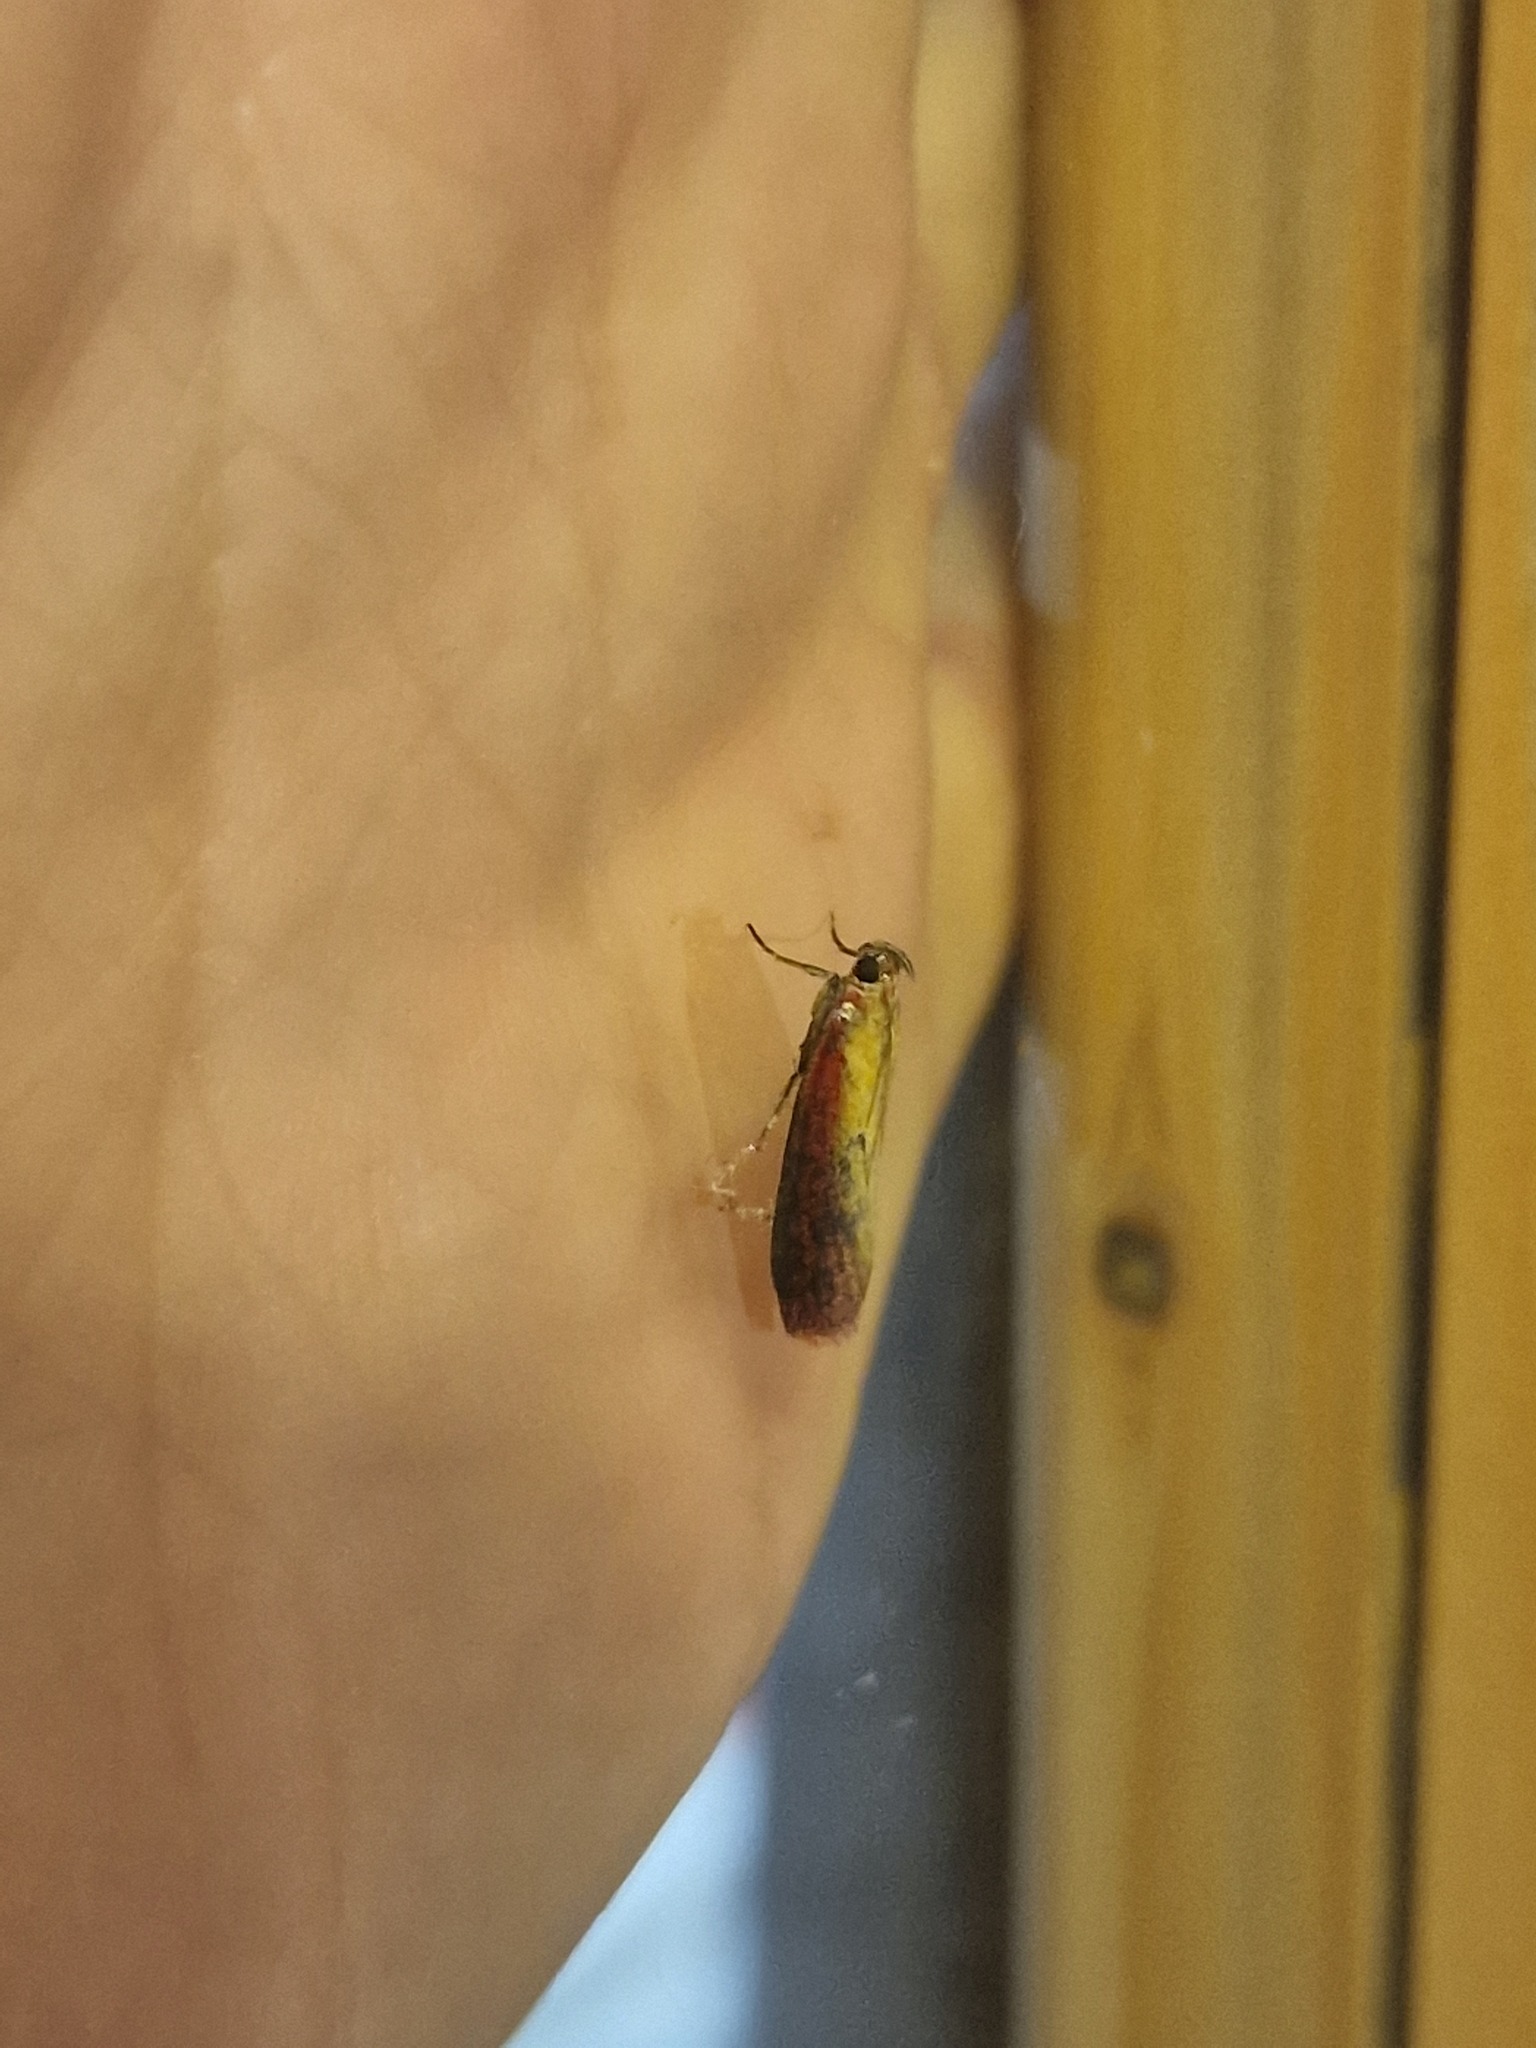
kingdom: Animalia
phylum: Arthropoda
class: Insecta
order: Lepidoptera
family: Pyralidae
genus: Oncocera
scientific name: Oncocera semirubella
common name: Rosy-striped knot-horn
